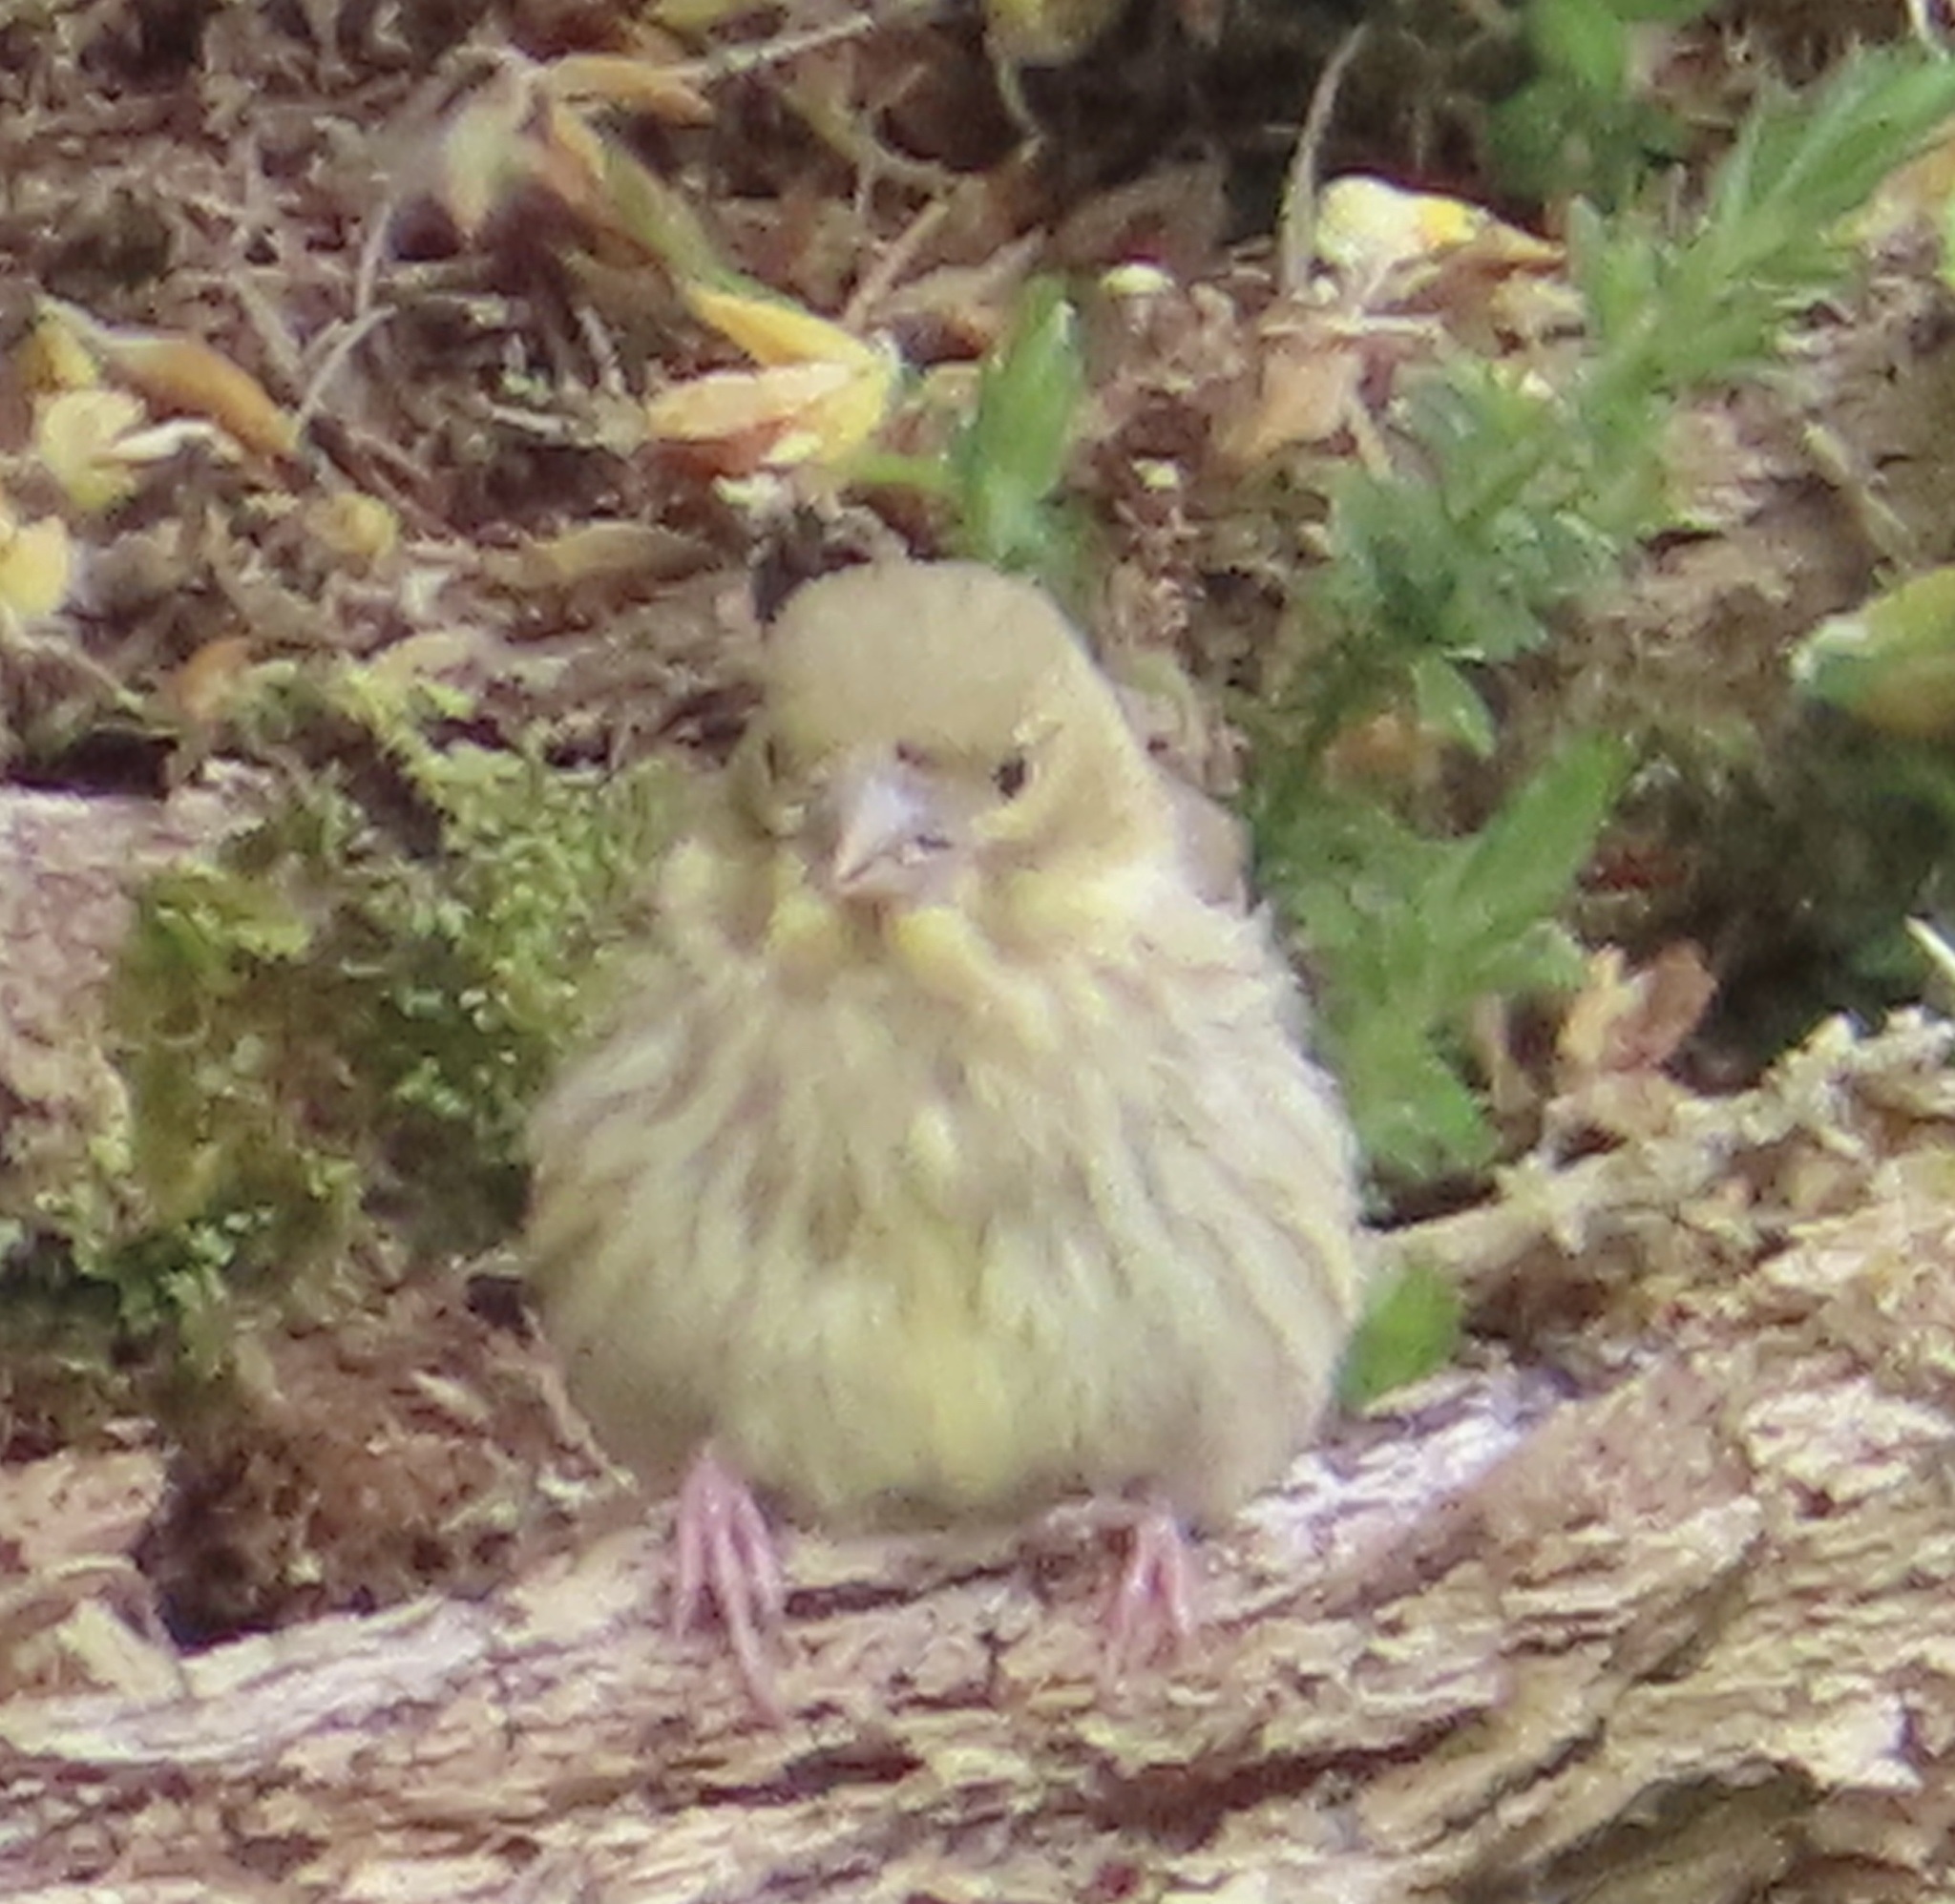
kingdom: Plantae
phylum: Tracheophyta
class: Liliopsida
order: Poales
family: Poaceae
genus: Chloris
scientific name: Chloris chloris
